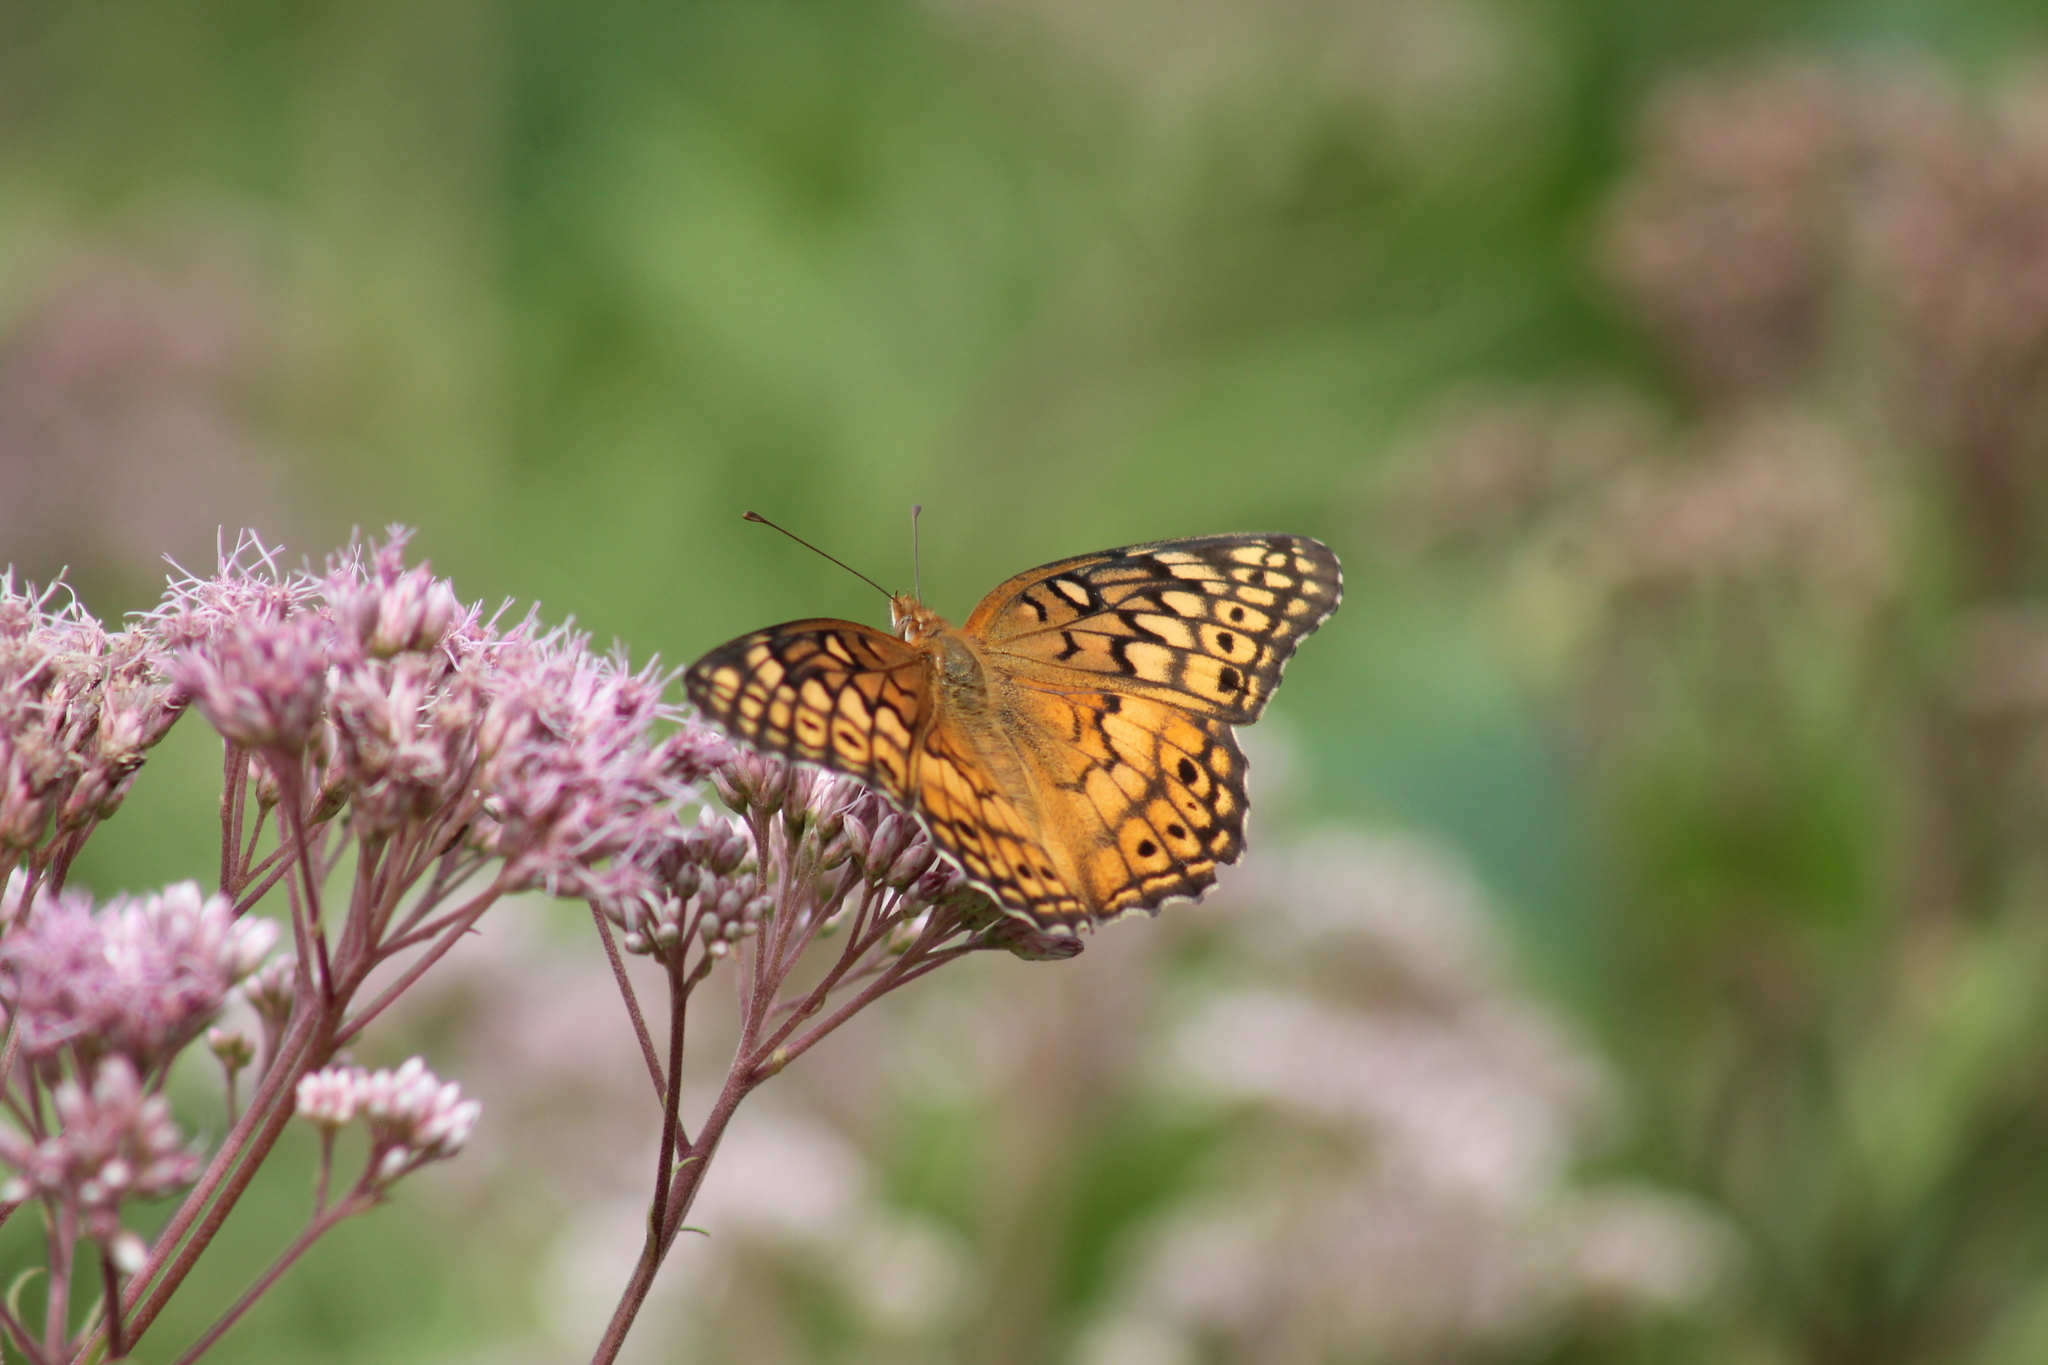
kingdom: Animalia
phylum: Arthropoda
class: Insecta
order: Lepidoptera
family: Nymphalidae
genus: Euptoieta
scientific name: Euptoieta claudia
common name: Variegated fritillary
